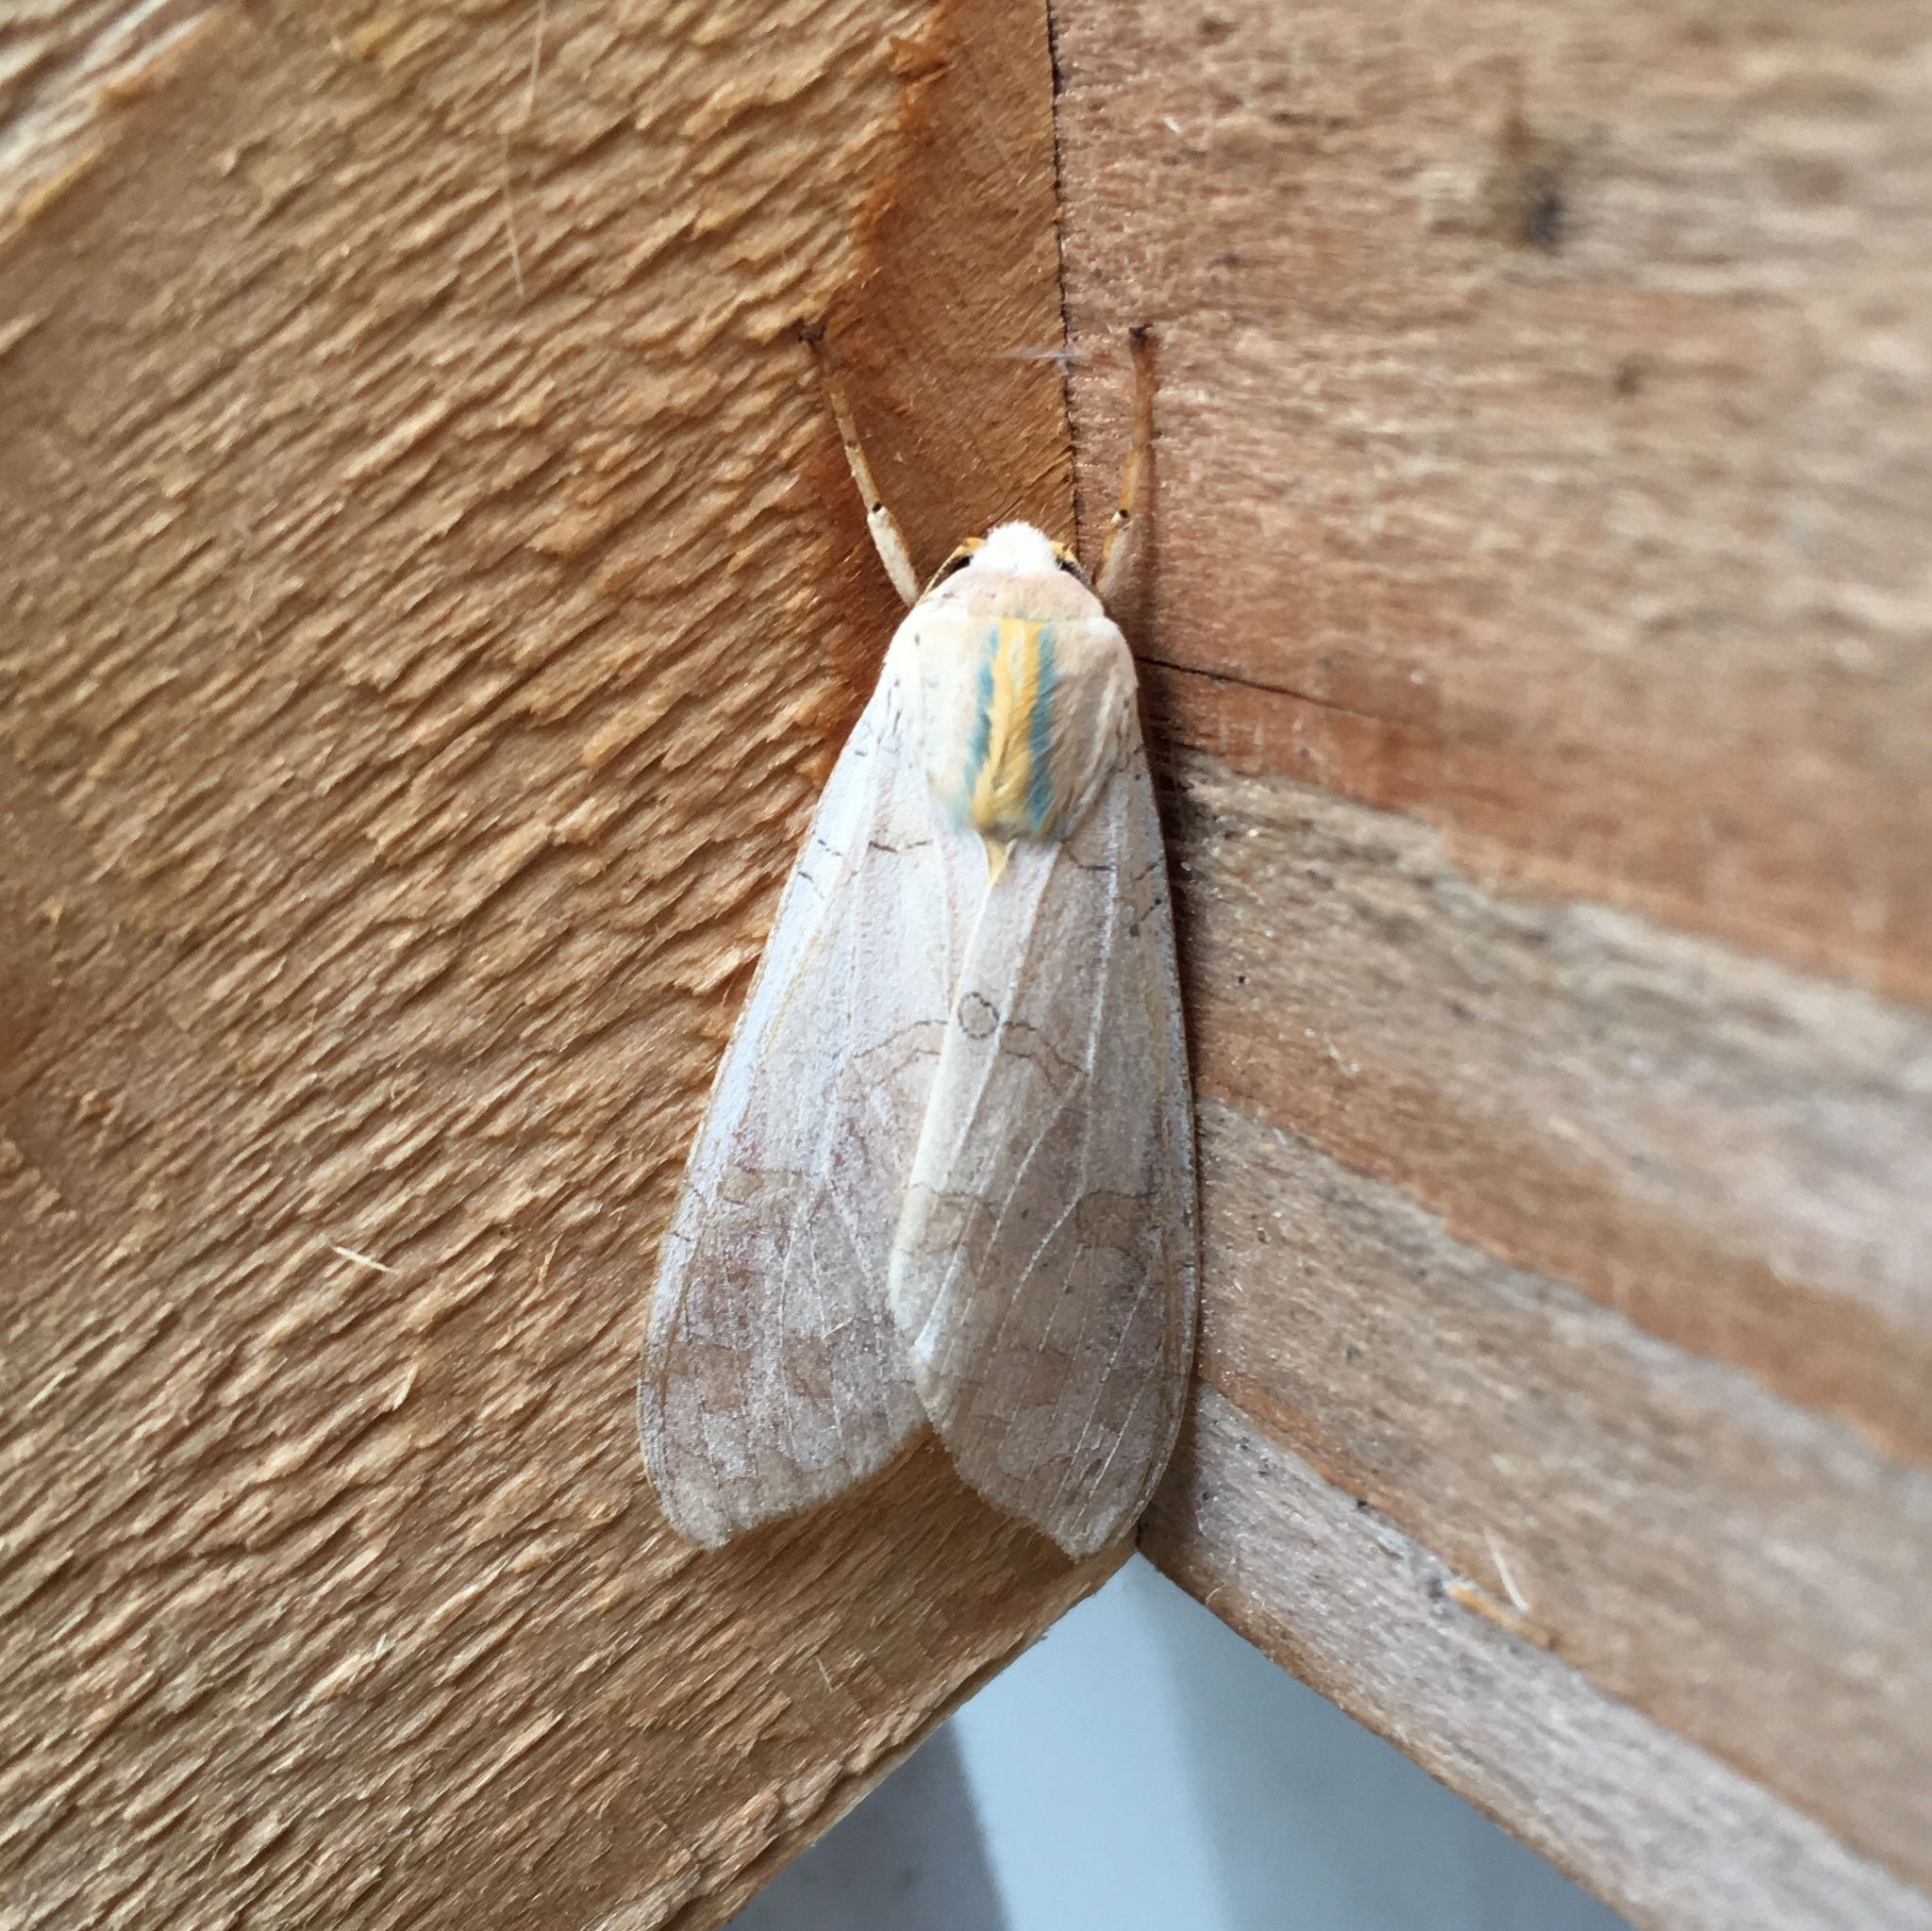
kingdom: Animalia
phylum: Arthropoda
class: Insecta
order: Lepidoptera
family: Erebidae
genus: Halysidota
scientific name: Halysidota
